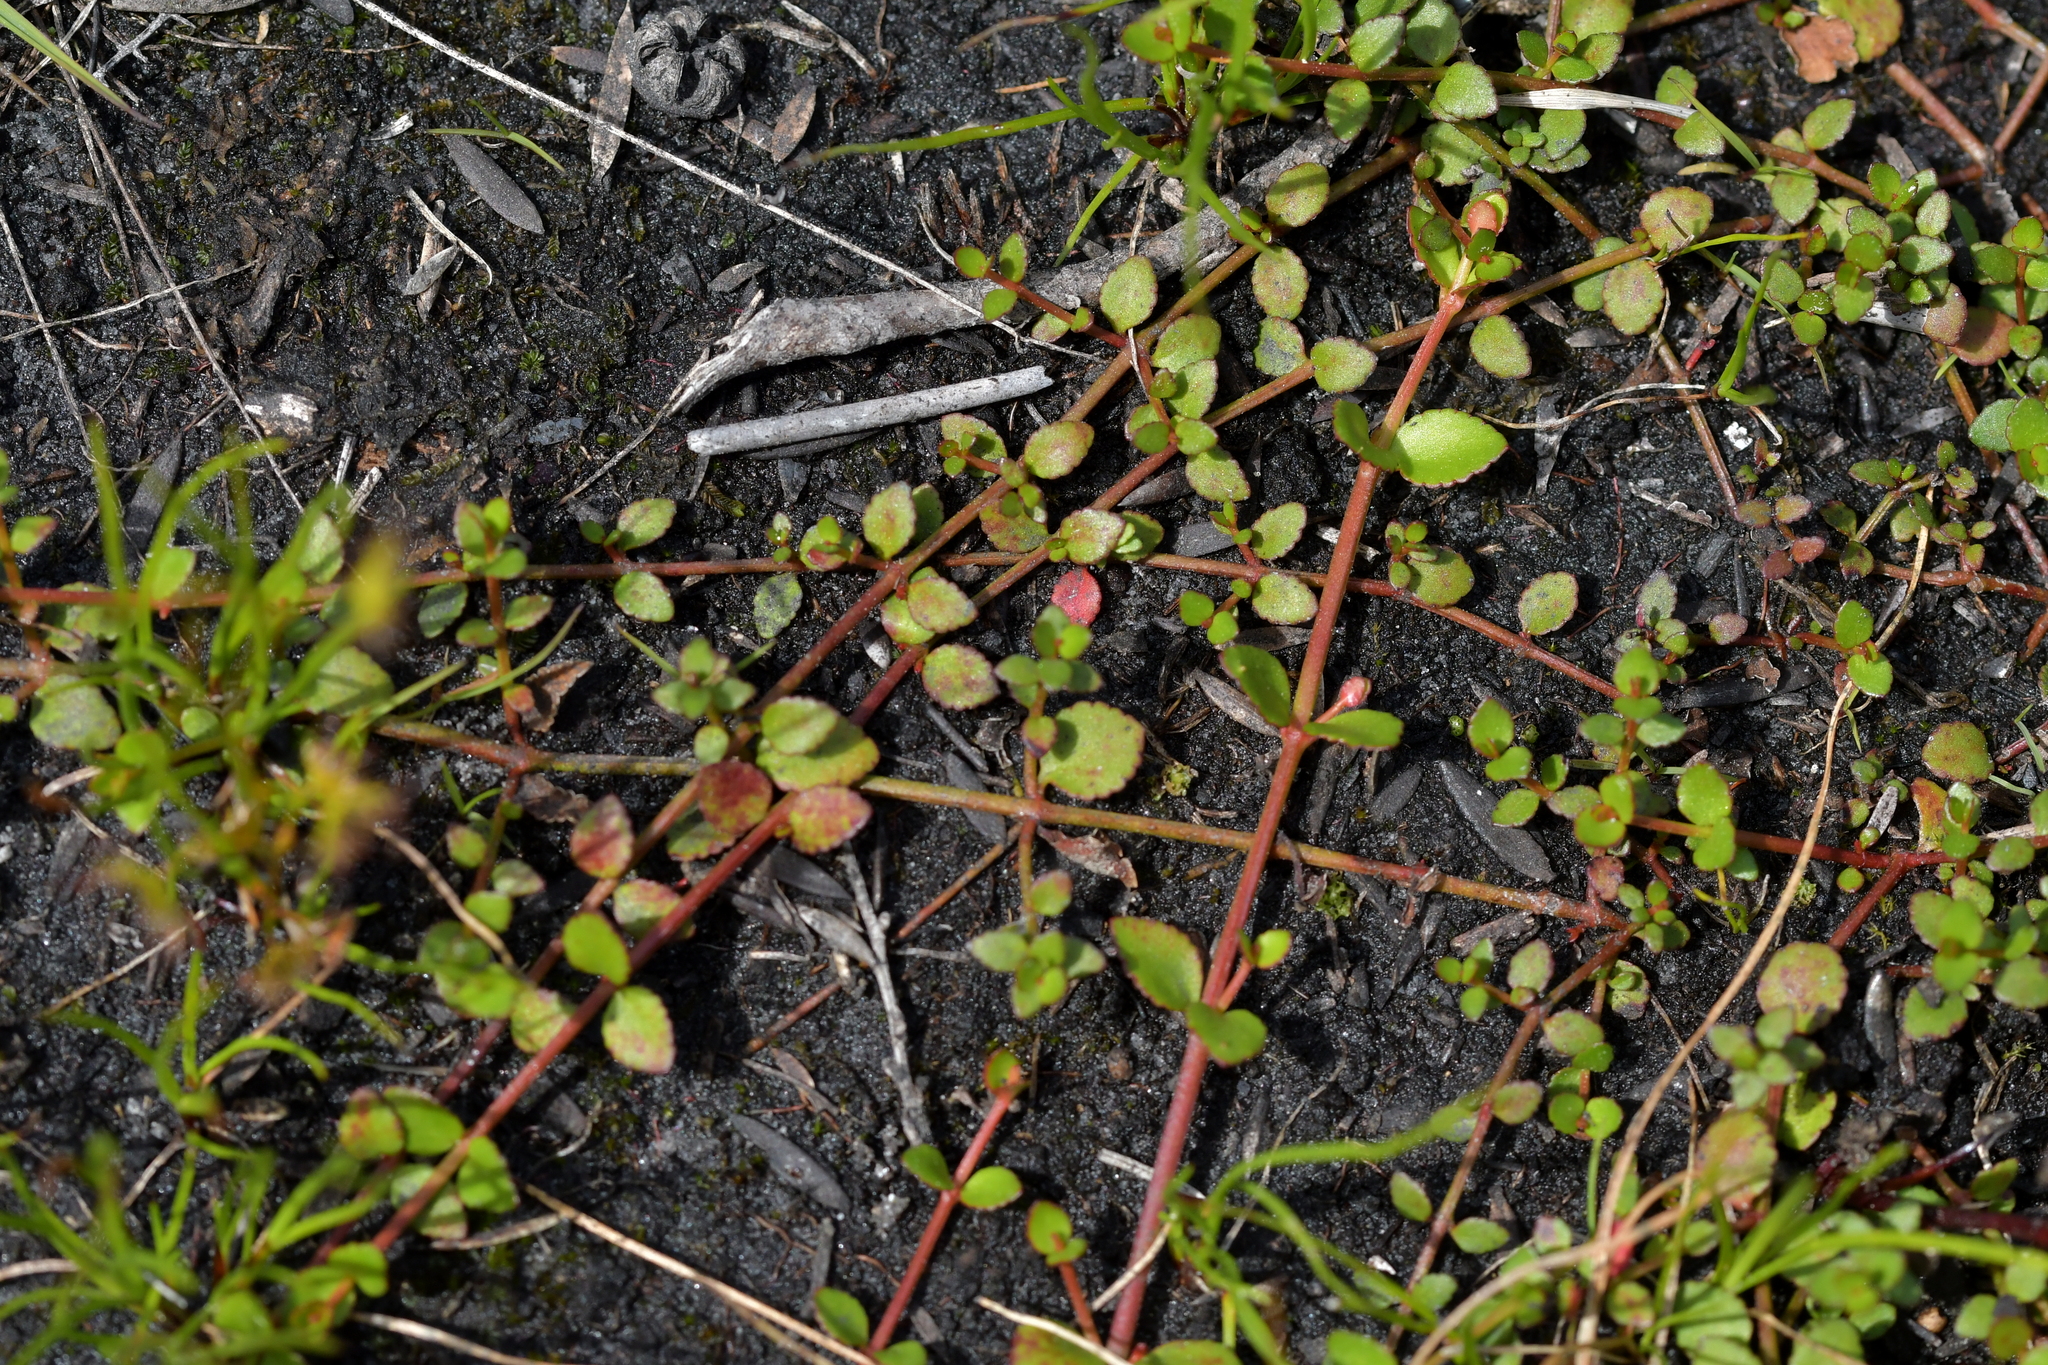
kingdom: Plantae
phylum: Tracheophyta
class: Magnoliopsida
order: Saxifragales
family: Haloragaceae
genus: Gonocarpus
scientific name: Gonocarpus micranthus
